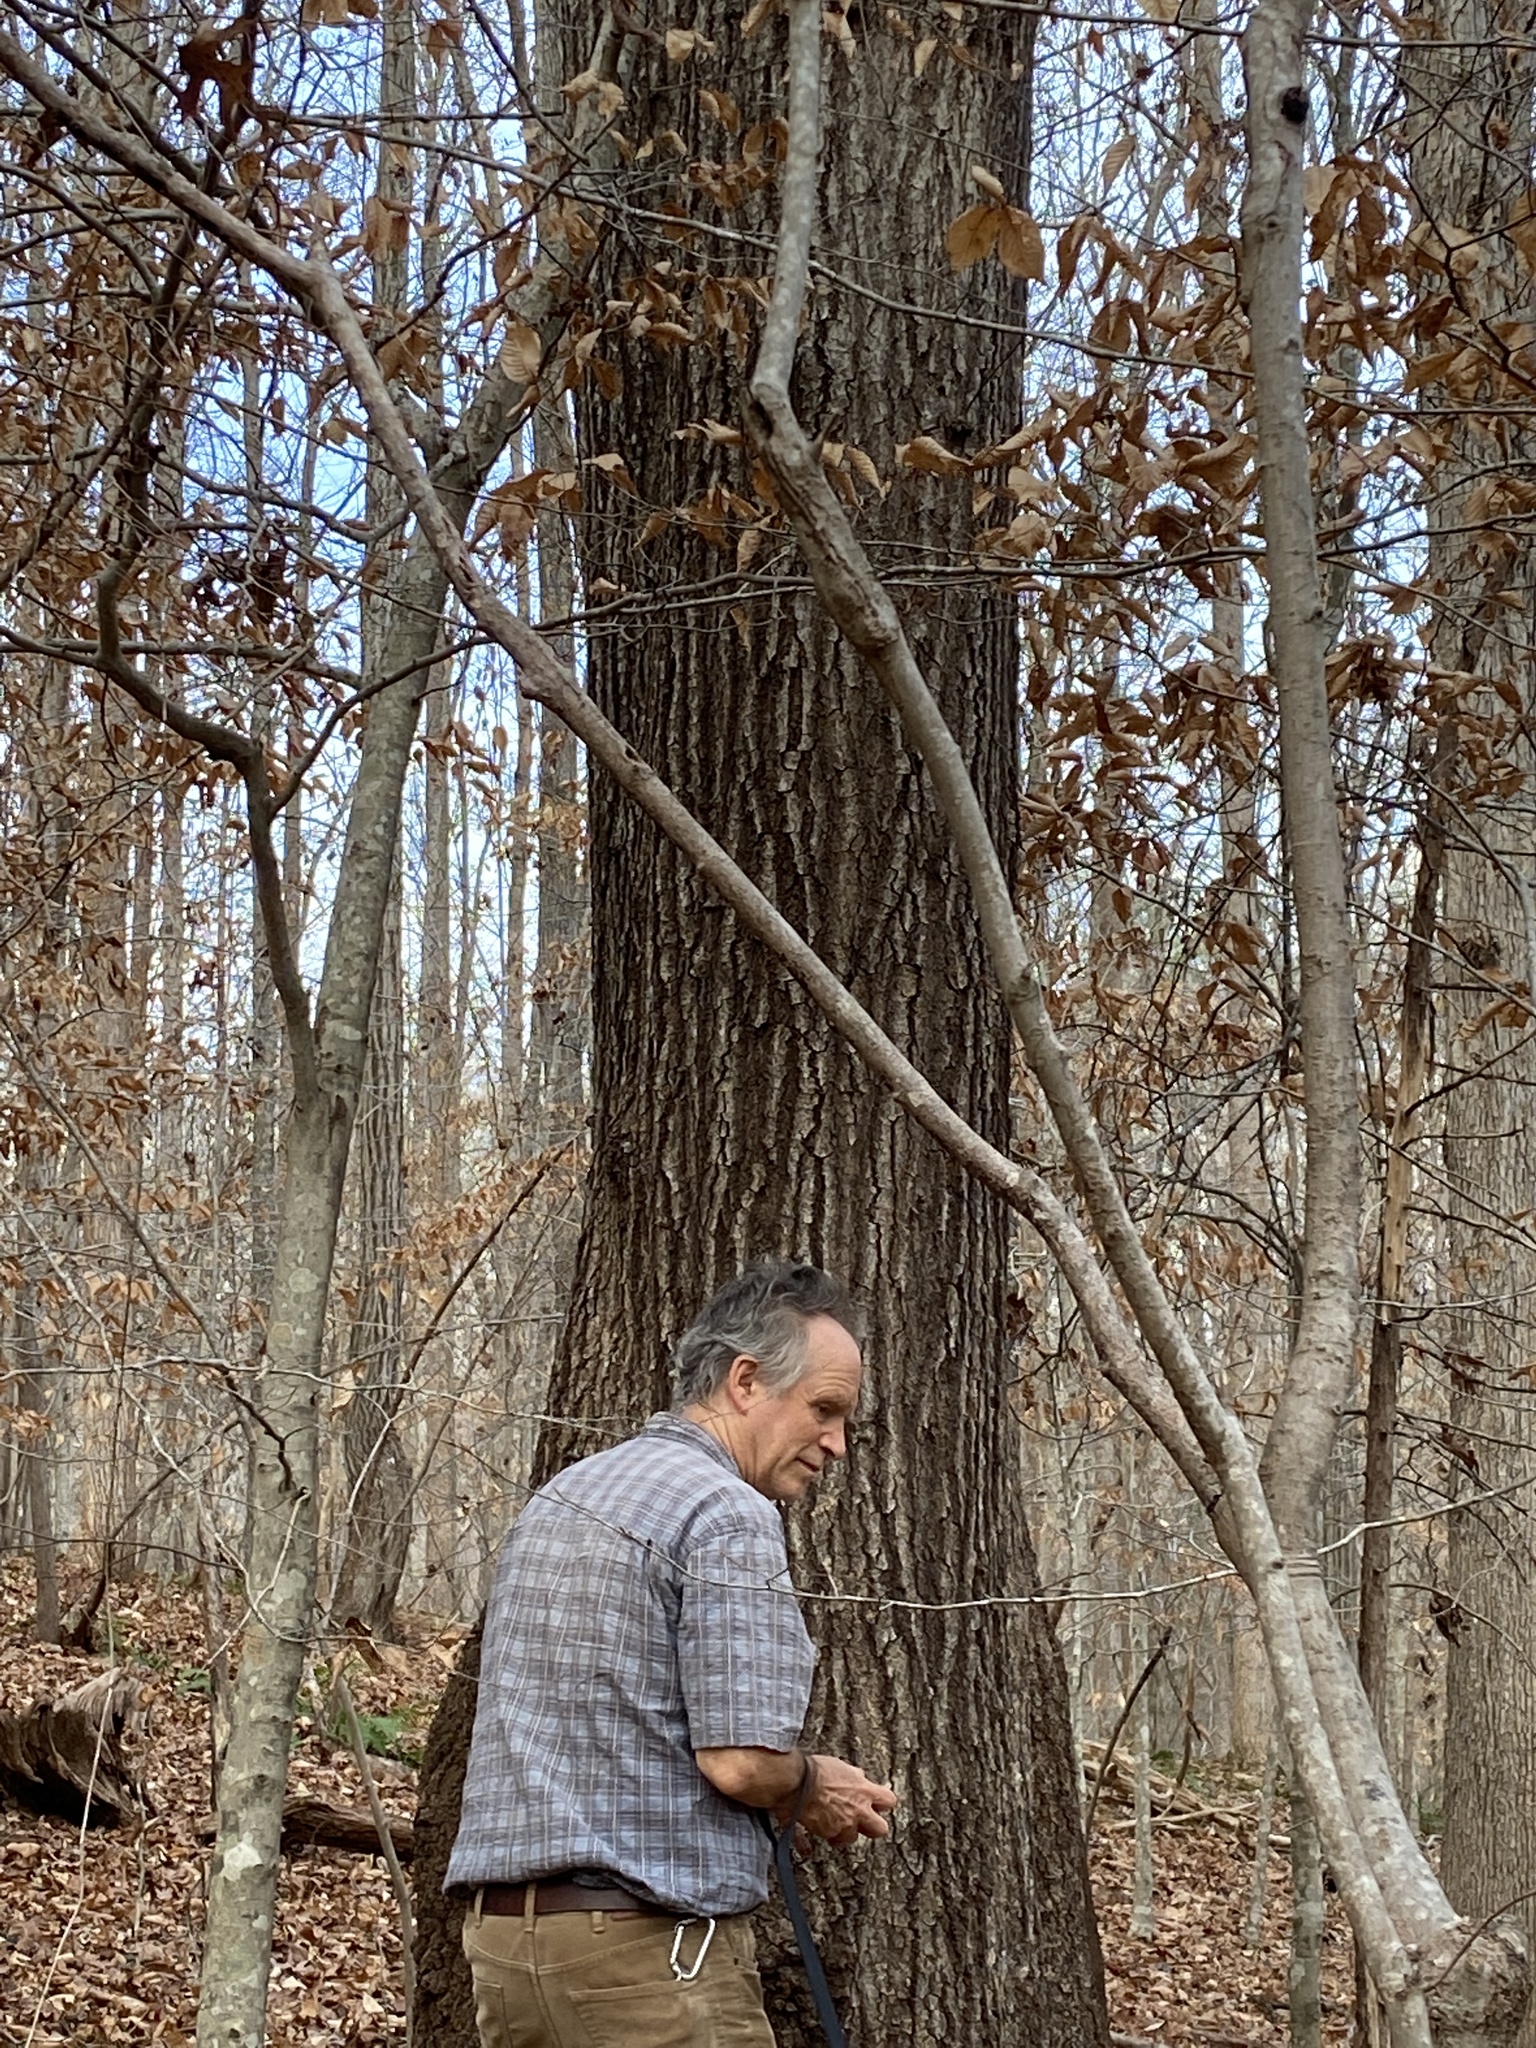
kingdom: Plantae
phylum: Tracheophyta
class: Magnoliopsida
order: Fagales
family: Fagaceae
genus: Quercus
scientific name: Quercus coccinea
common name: Scarlet oak
